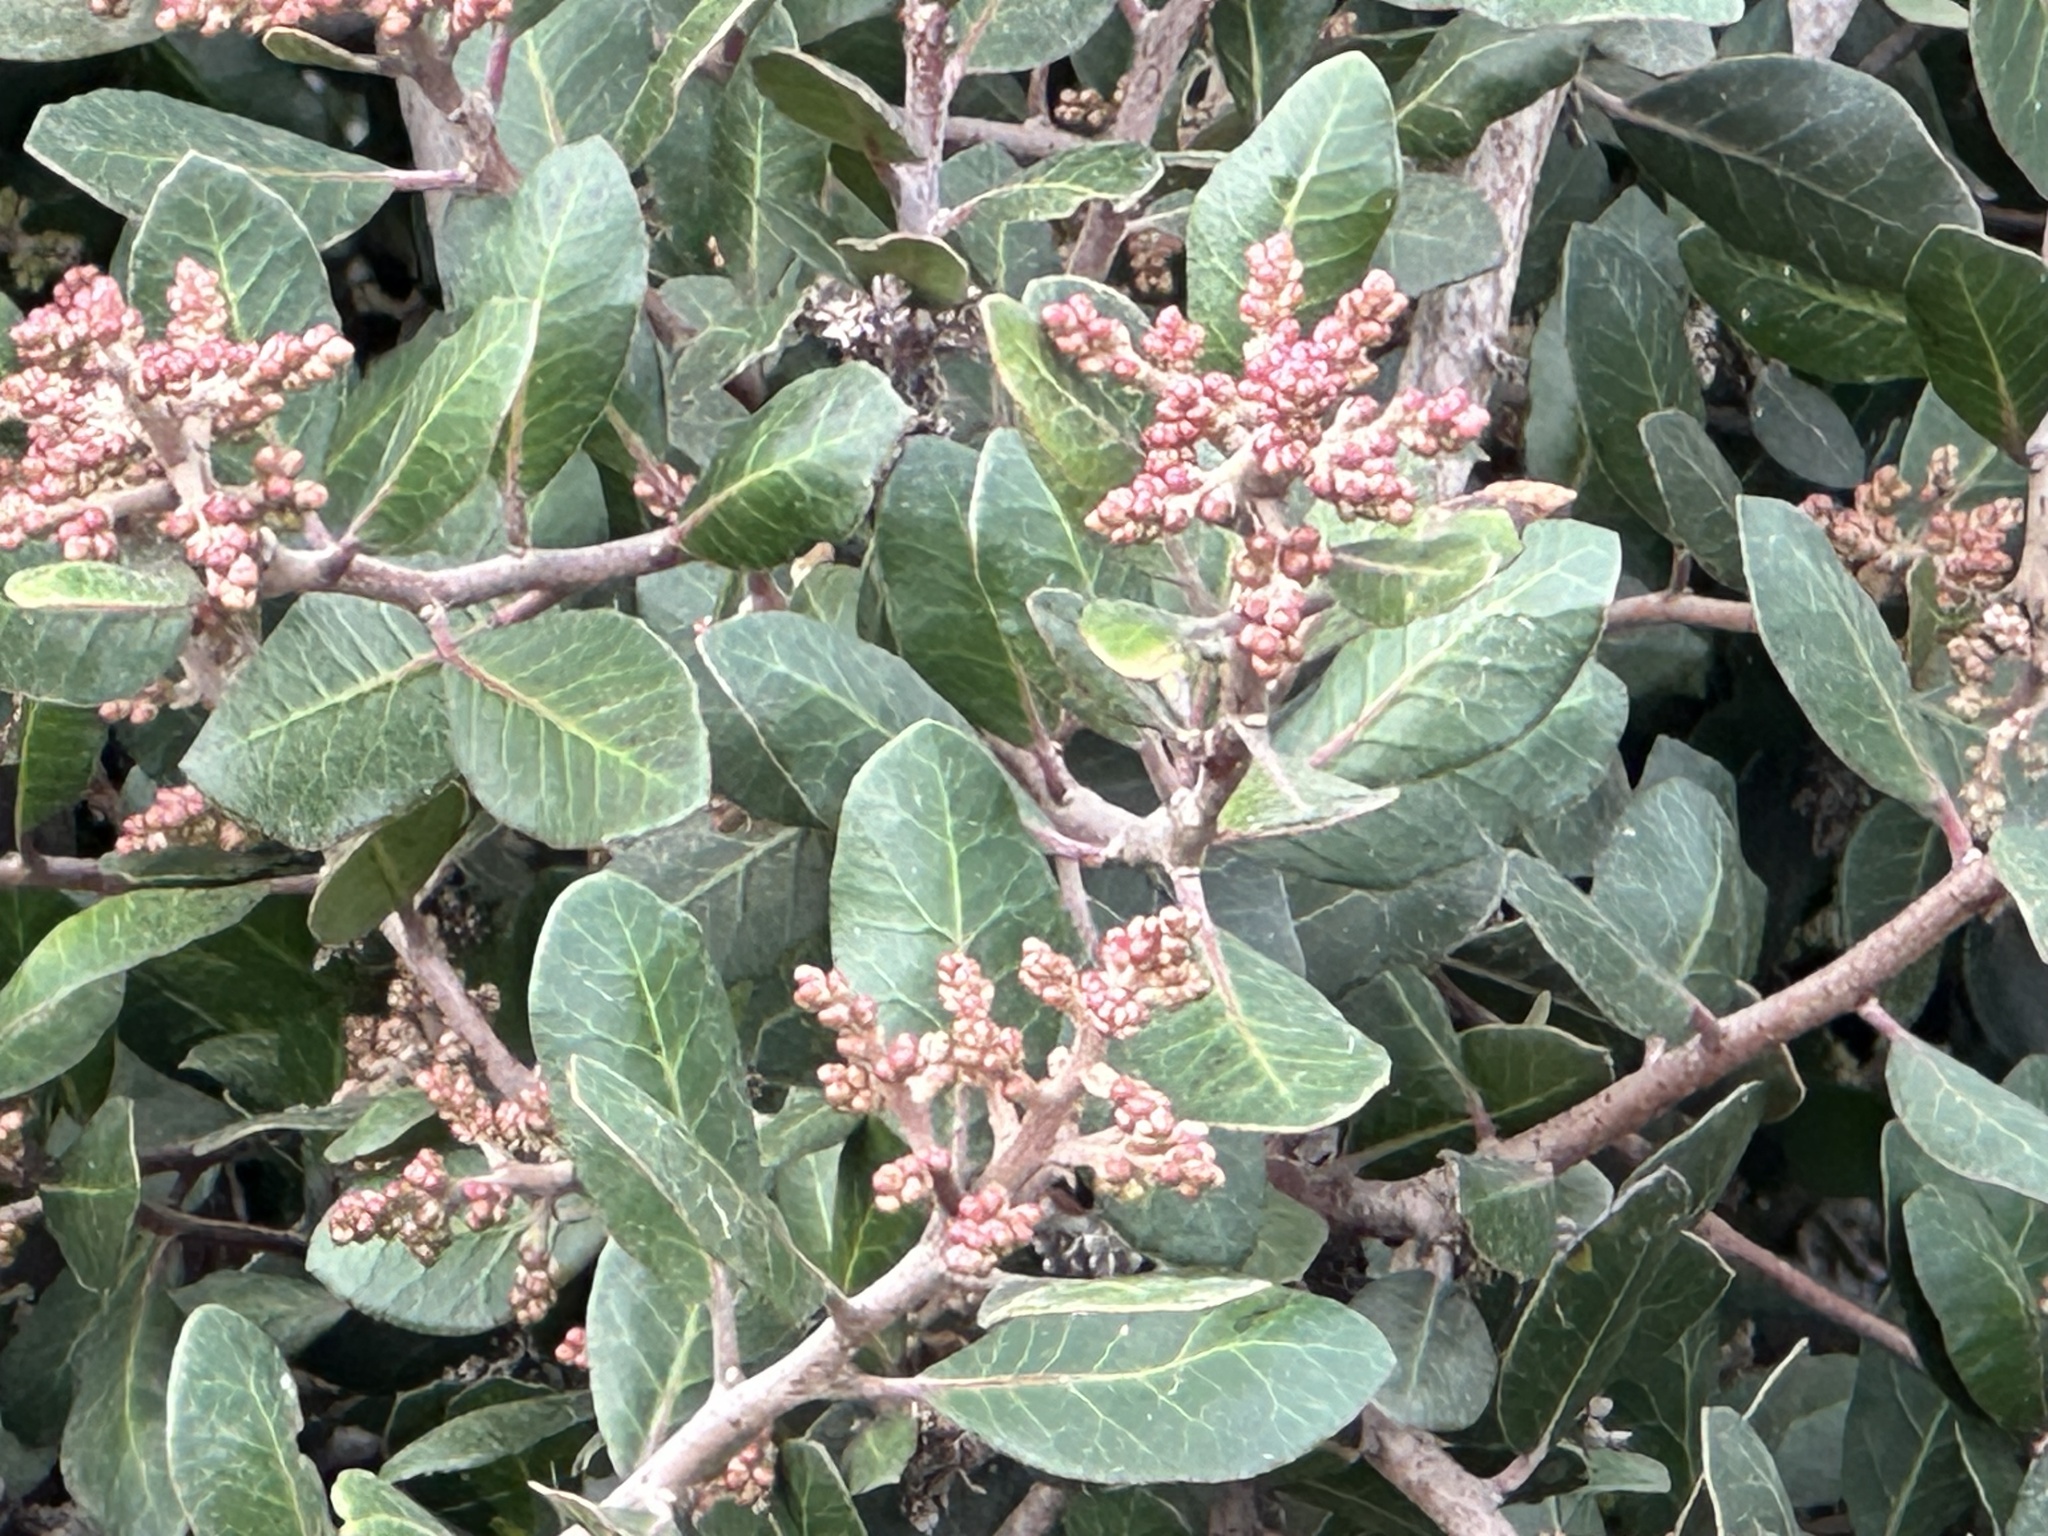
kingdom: Plantae
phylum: Tracheophyta
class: Magnoliopsida
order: Sapindales
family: Anacardiaceae
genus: Rhus
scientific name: Rhus integrifolia
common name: Lemonade sumac
